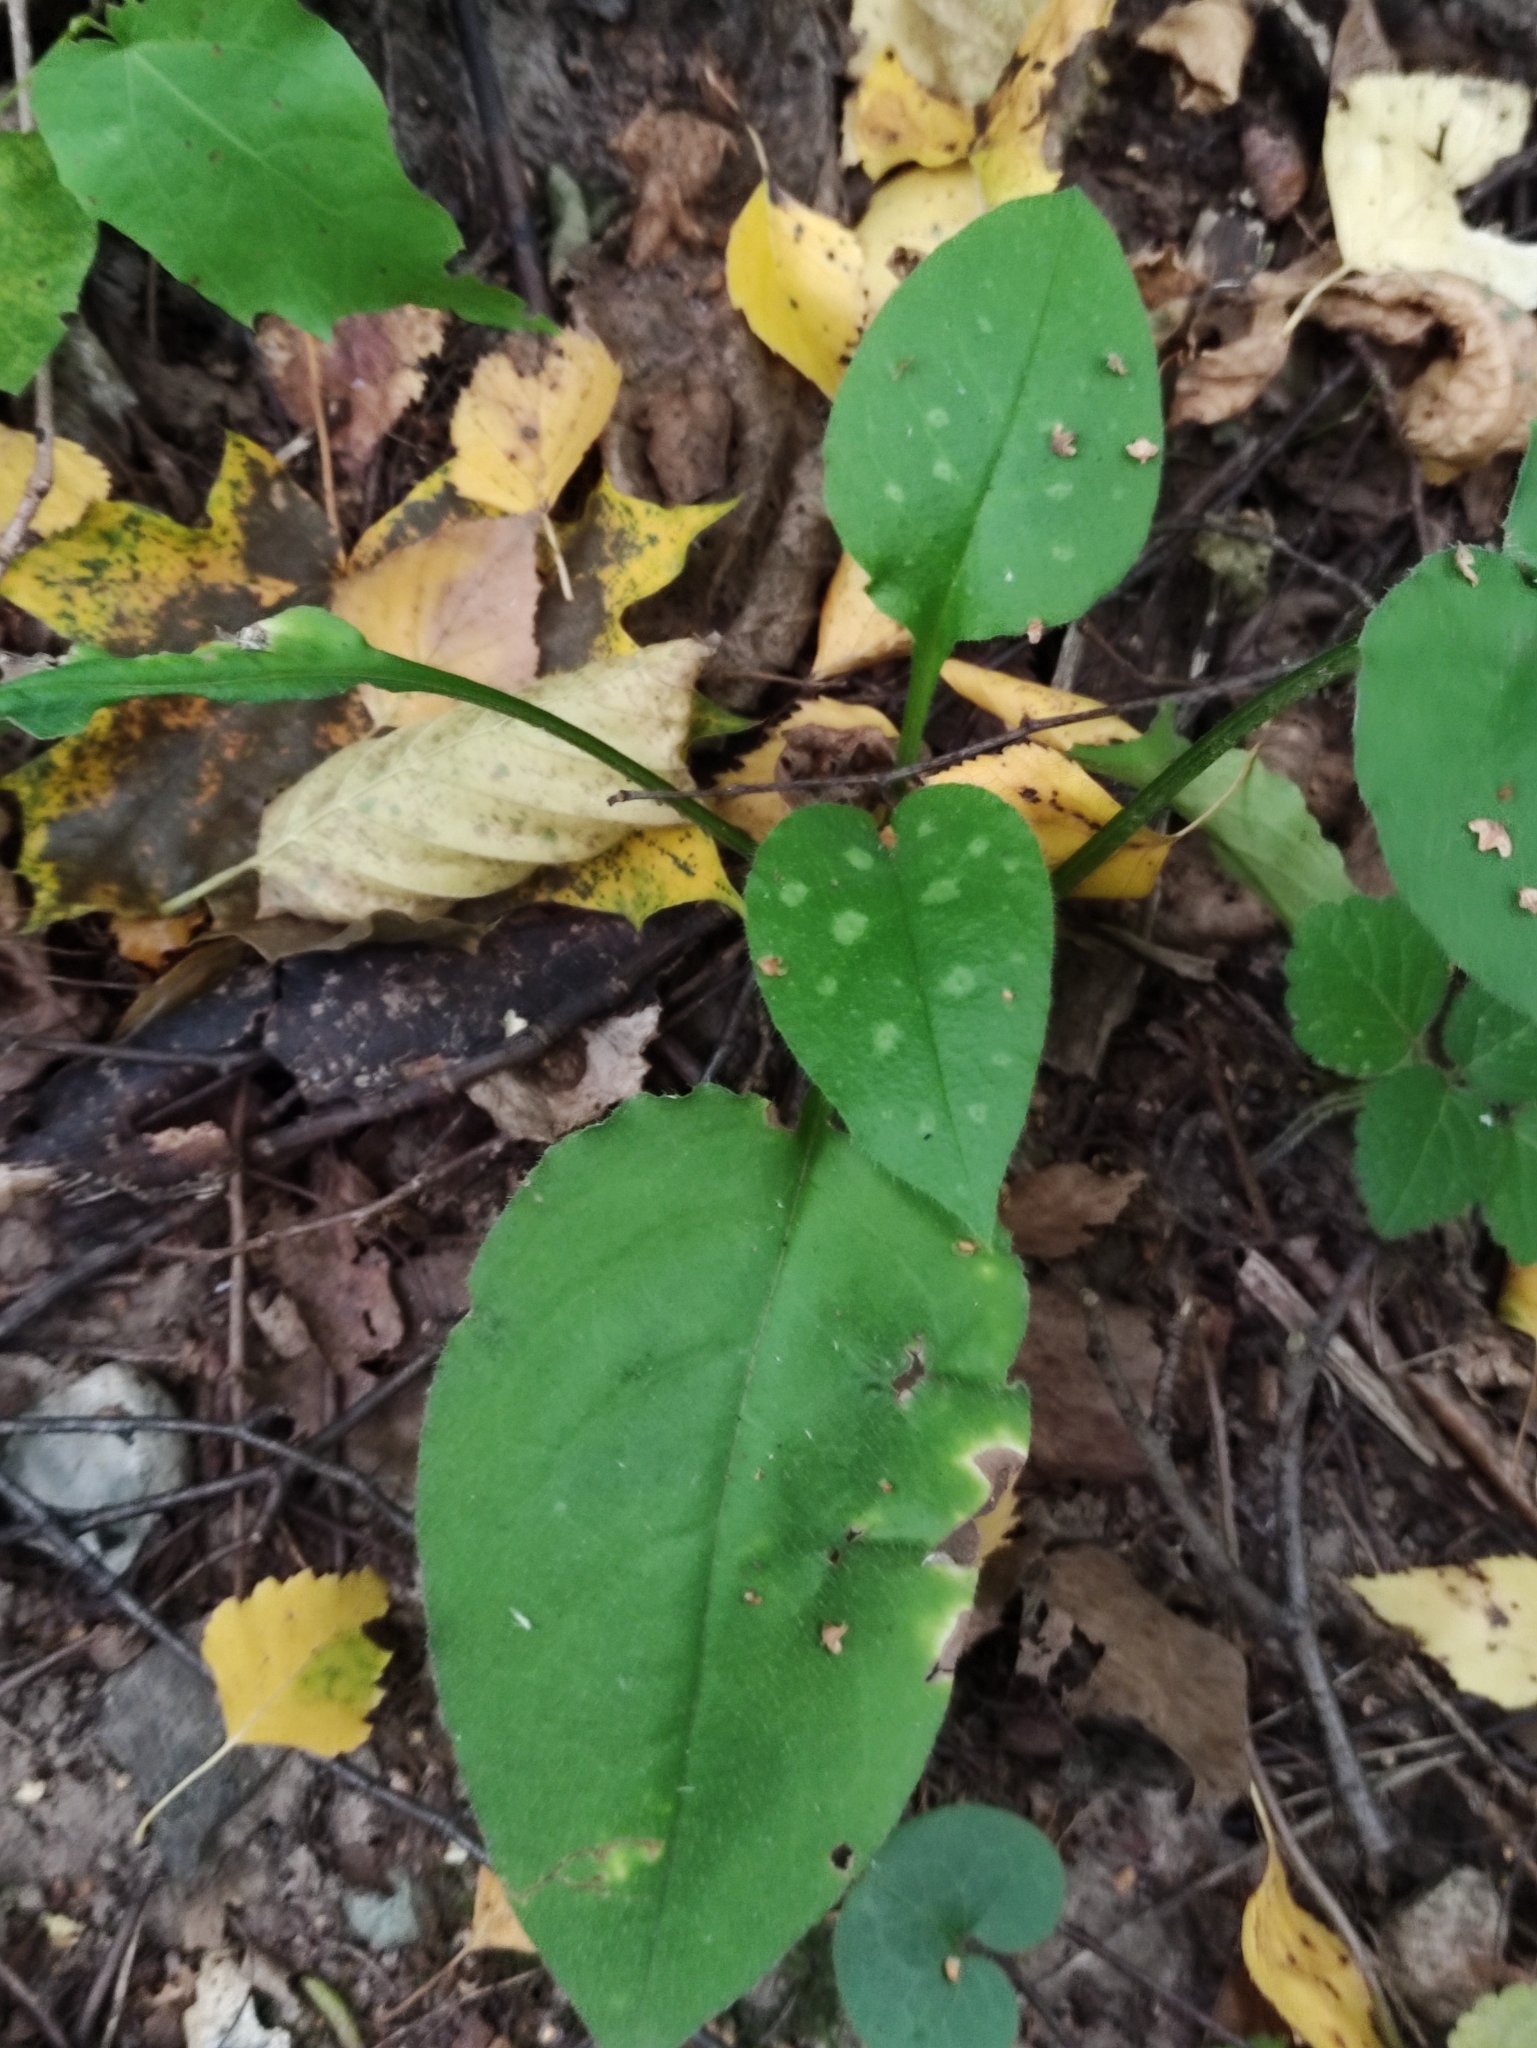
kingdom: Plantae
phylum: Tracheophyta
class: Magnoliopsida
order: Boraginales
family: Boraginaceae
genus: Pulmonaria
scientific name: Pulmonaria obscura
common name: Suffolk lungwort
